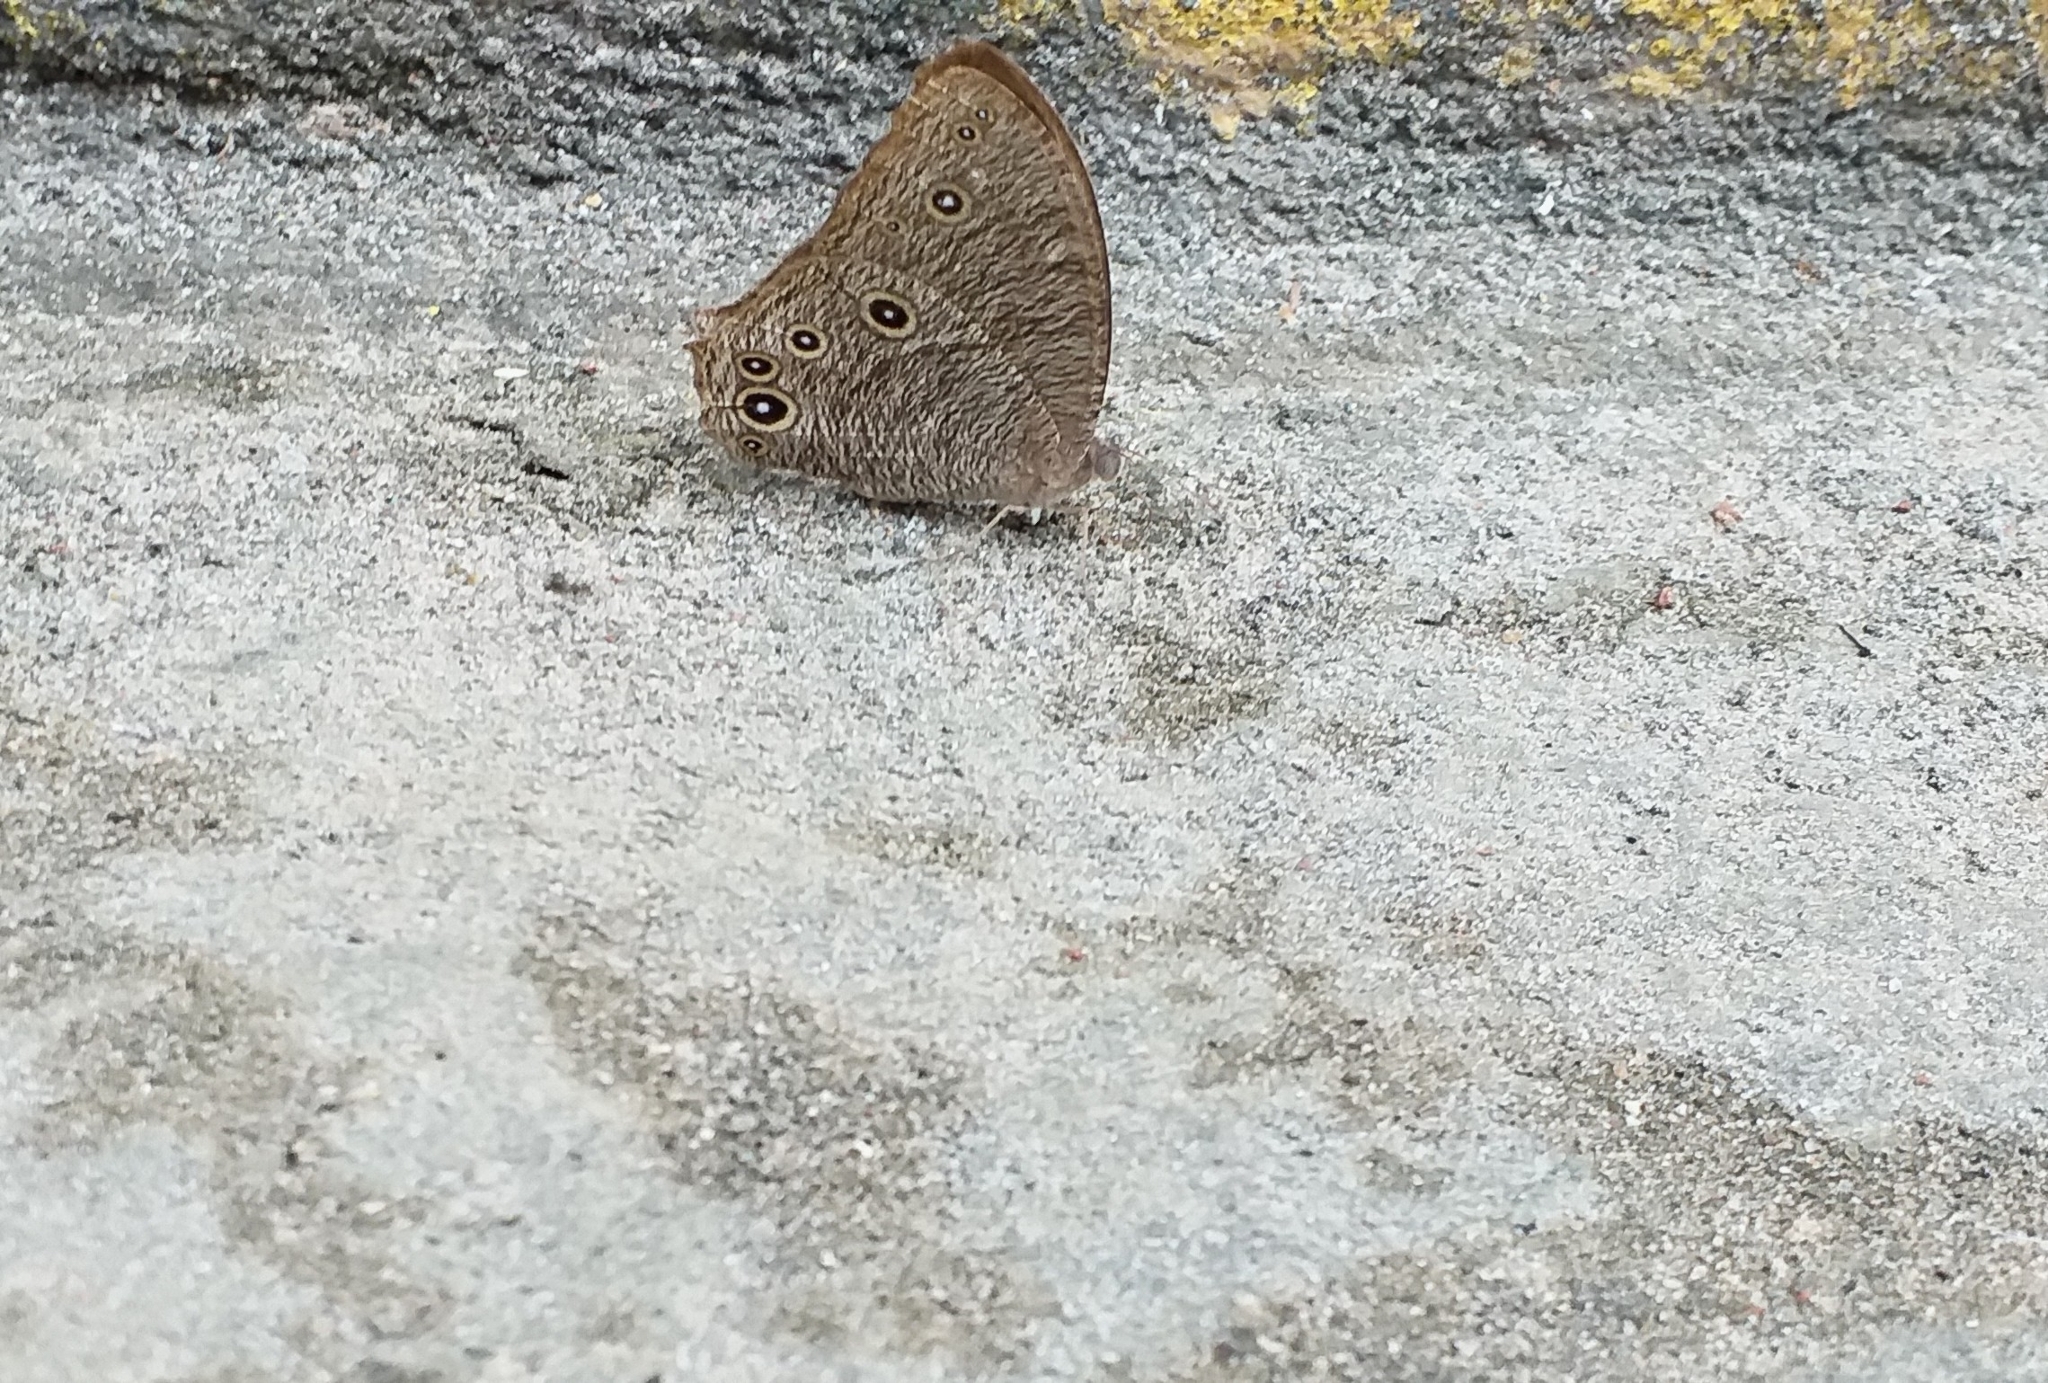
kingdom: Animalia
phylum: Arthropoda
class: Insecta
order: Lepidoptera
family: Nymphalidae
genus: Melanitis
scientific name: Melanitis leda
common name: Twilight brown
